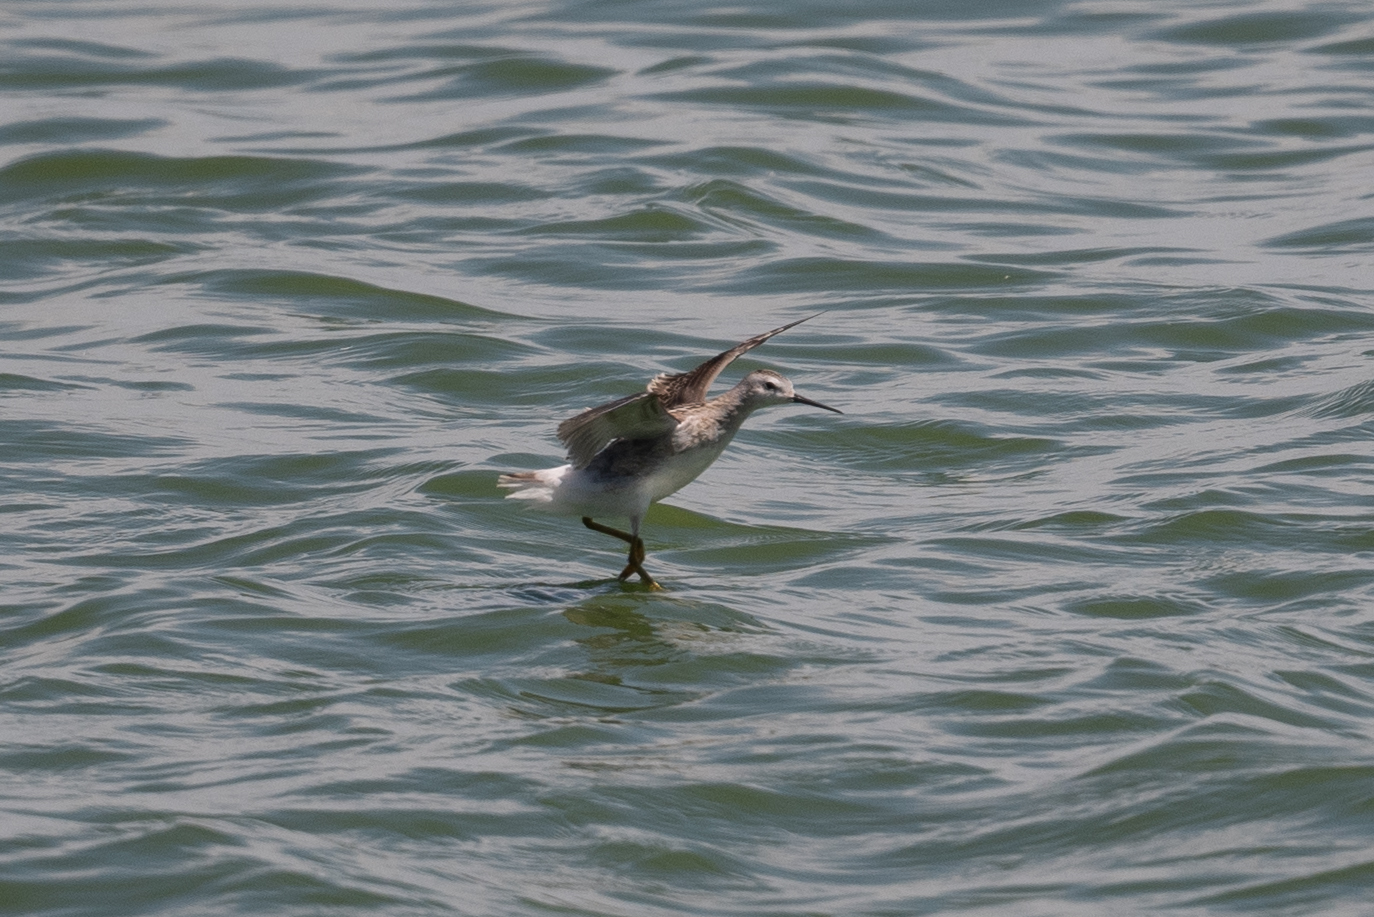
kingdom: Animalia
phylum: Chordata
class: Aves
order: Charadriiformes
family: Scolopacidae
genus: Phalaropus
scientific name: Phalaropus tricolor
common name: Wilson's phalarope
